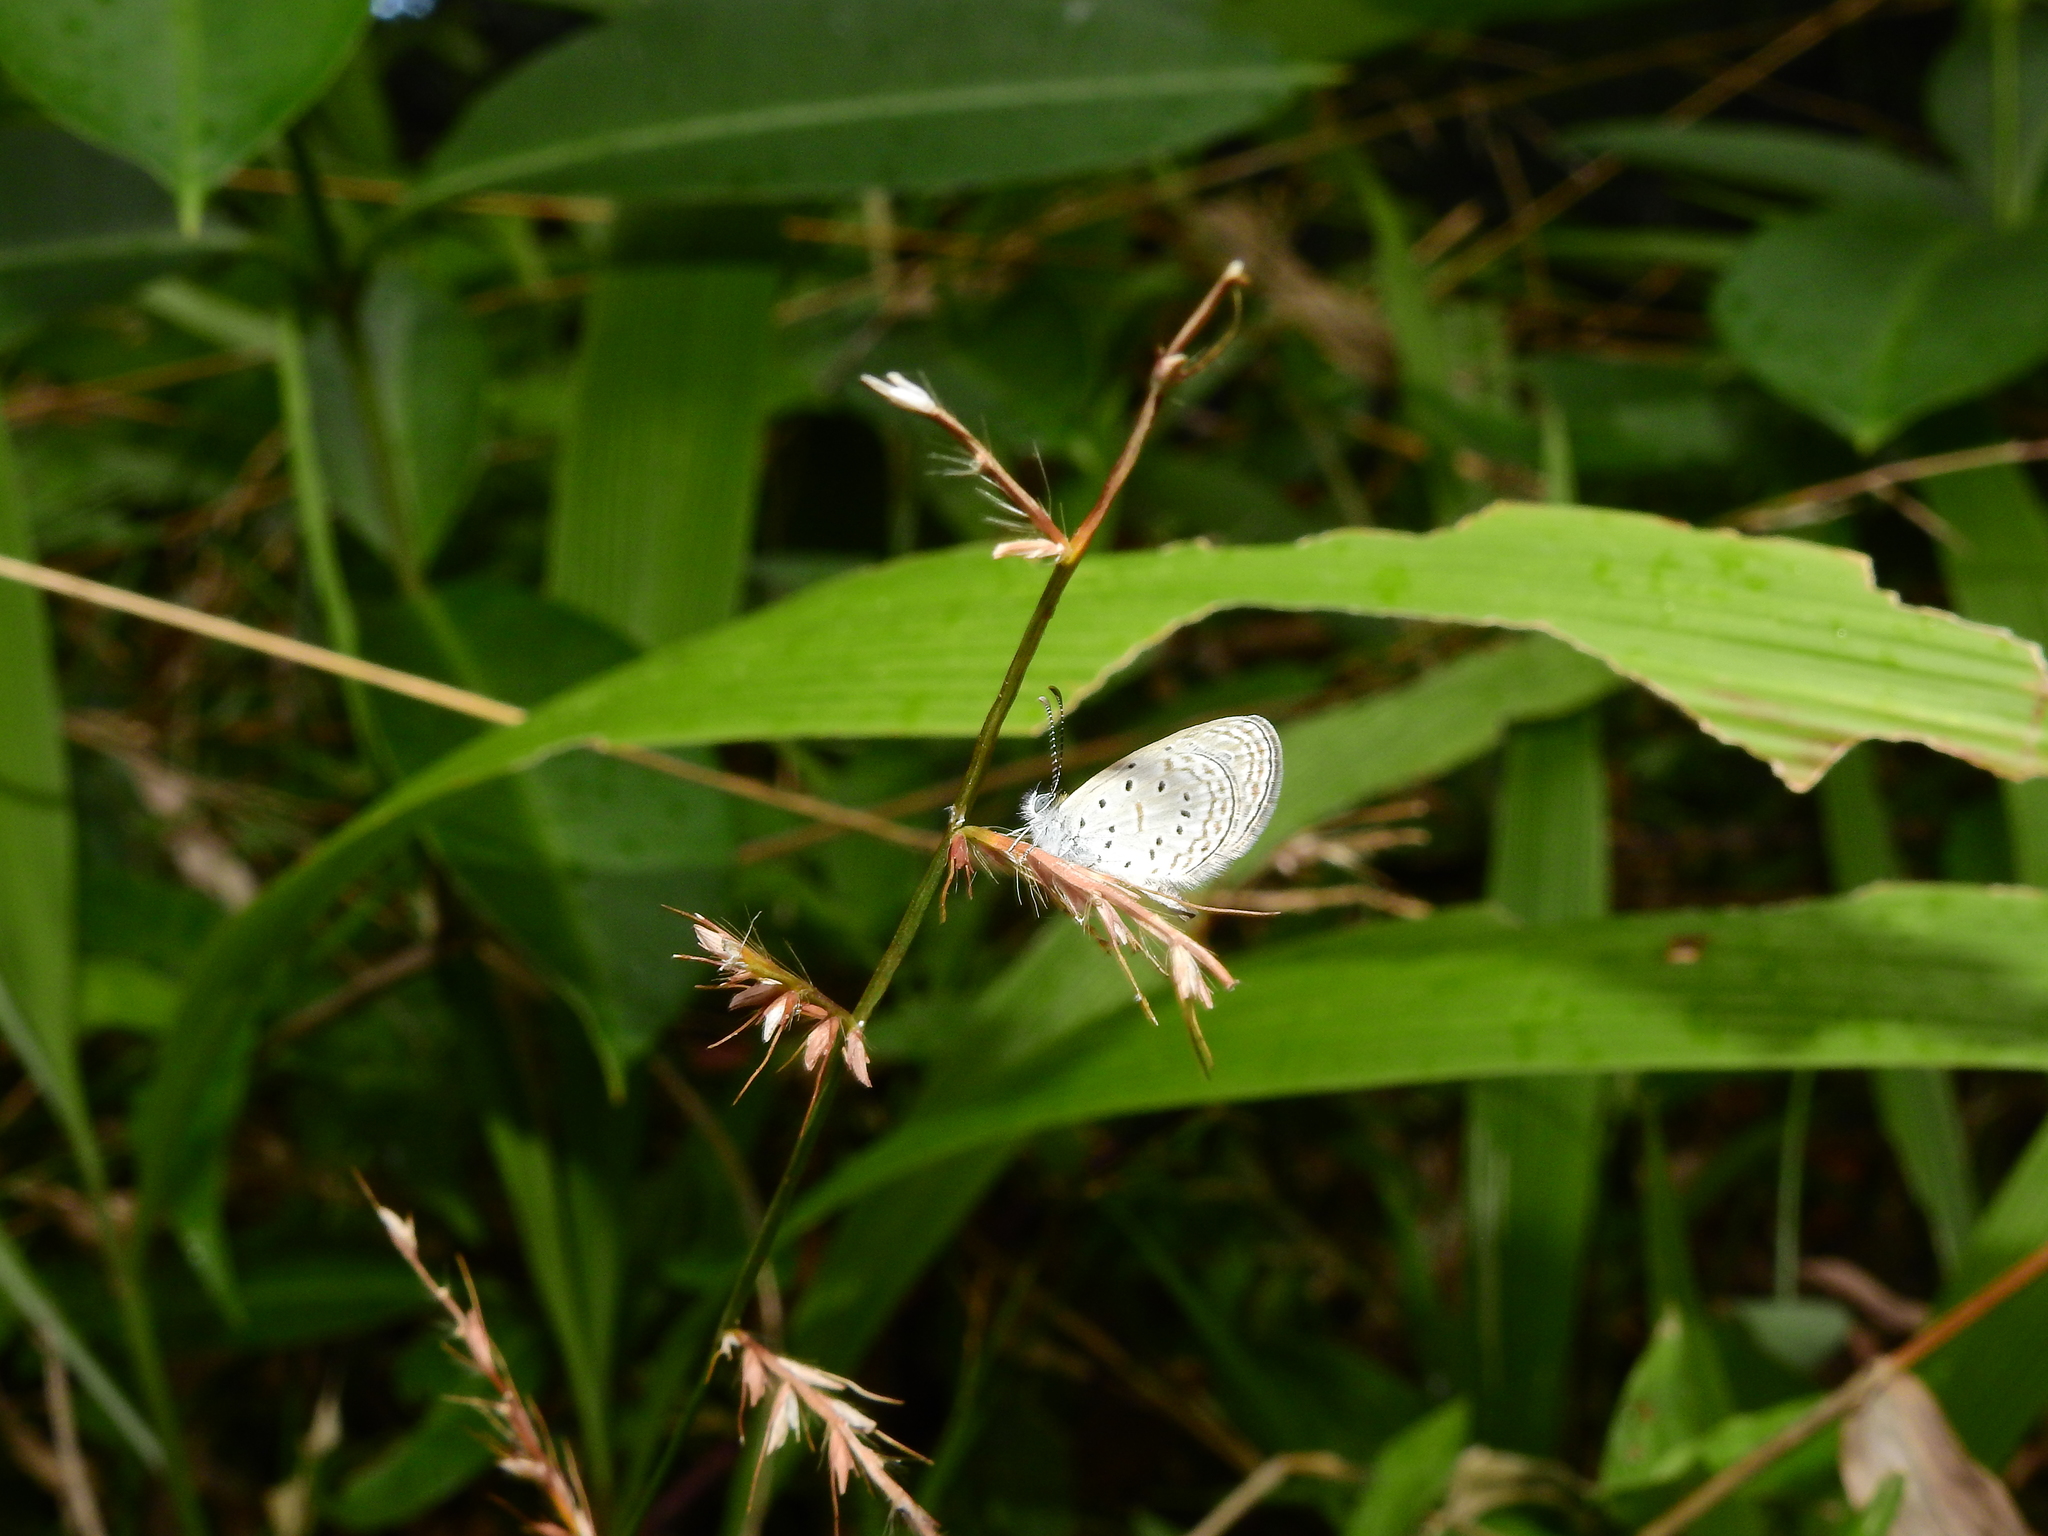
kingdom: Animalia
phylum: Arthropoda
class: Insecta
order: Lepidoptera
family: Lycaenidae
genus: Zizula
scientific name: Zizula hylax
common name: Gaika blue
